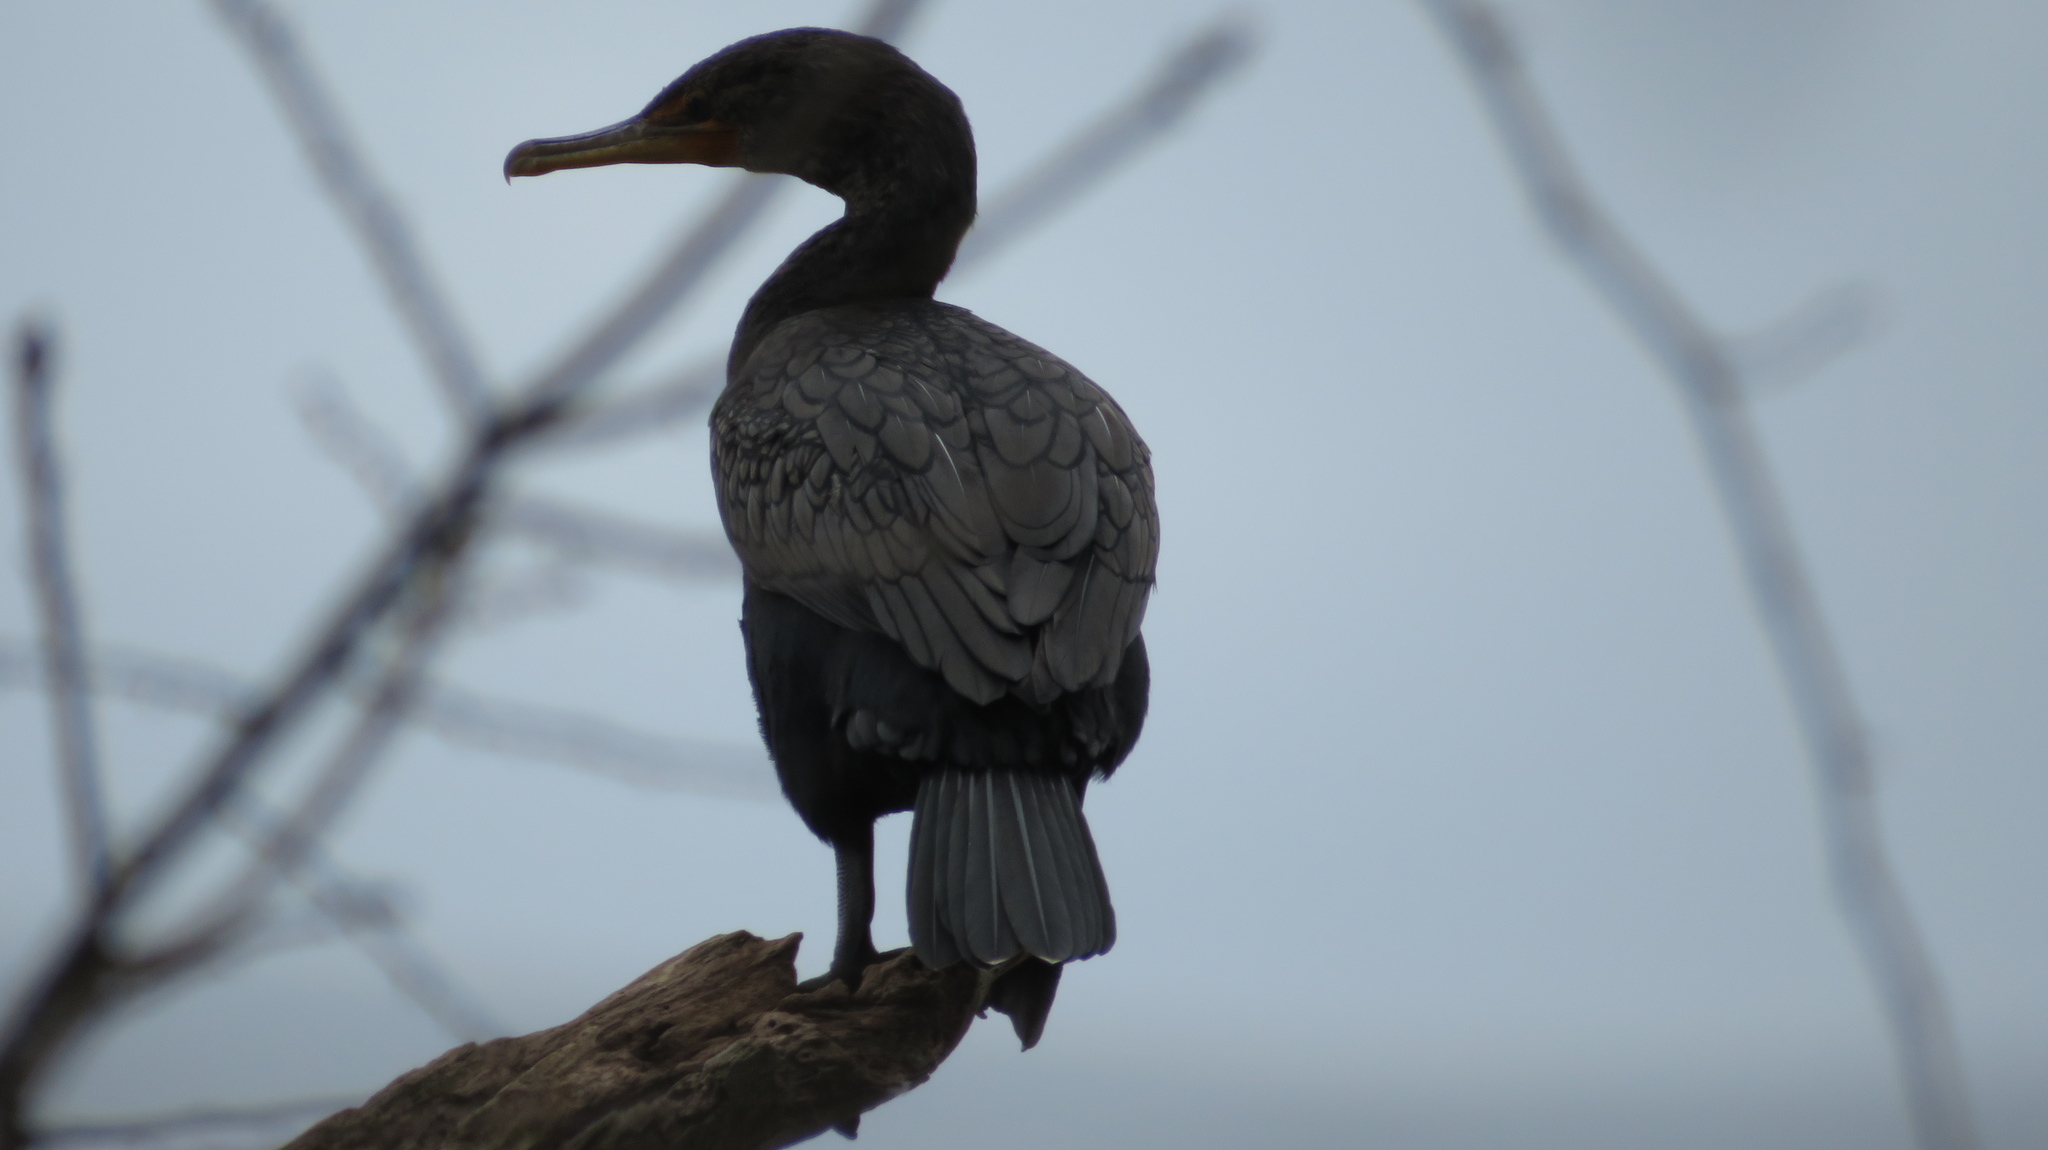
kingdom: Animalia
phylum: Chordata
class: Aves
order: Suliformes
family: Phalacrocoracidae
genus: Phalacrocorax
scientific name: Phalacrocorax auritus
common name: Double-crested cormorant
